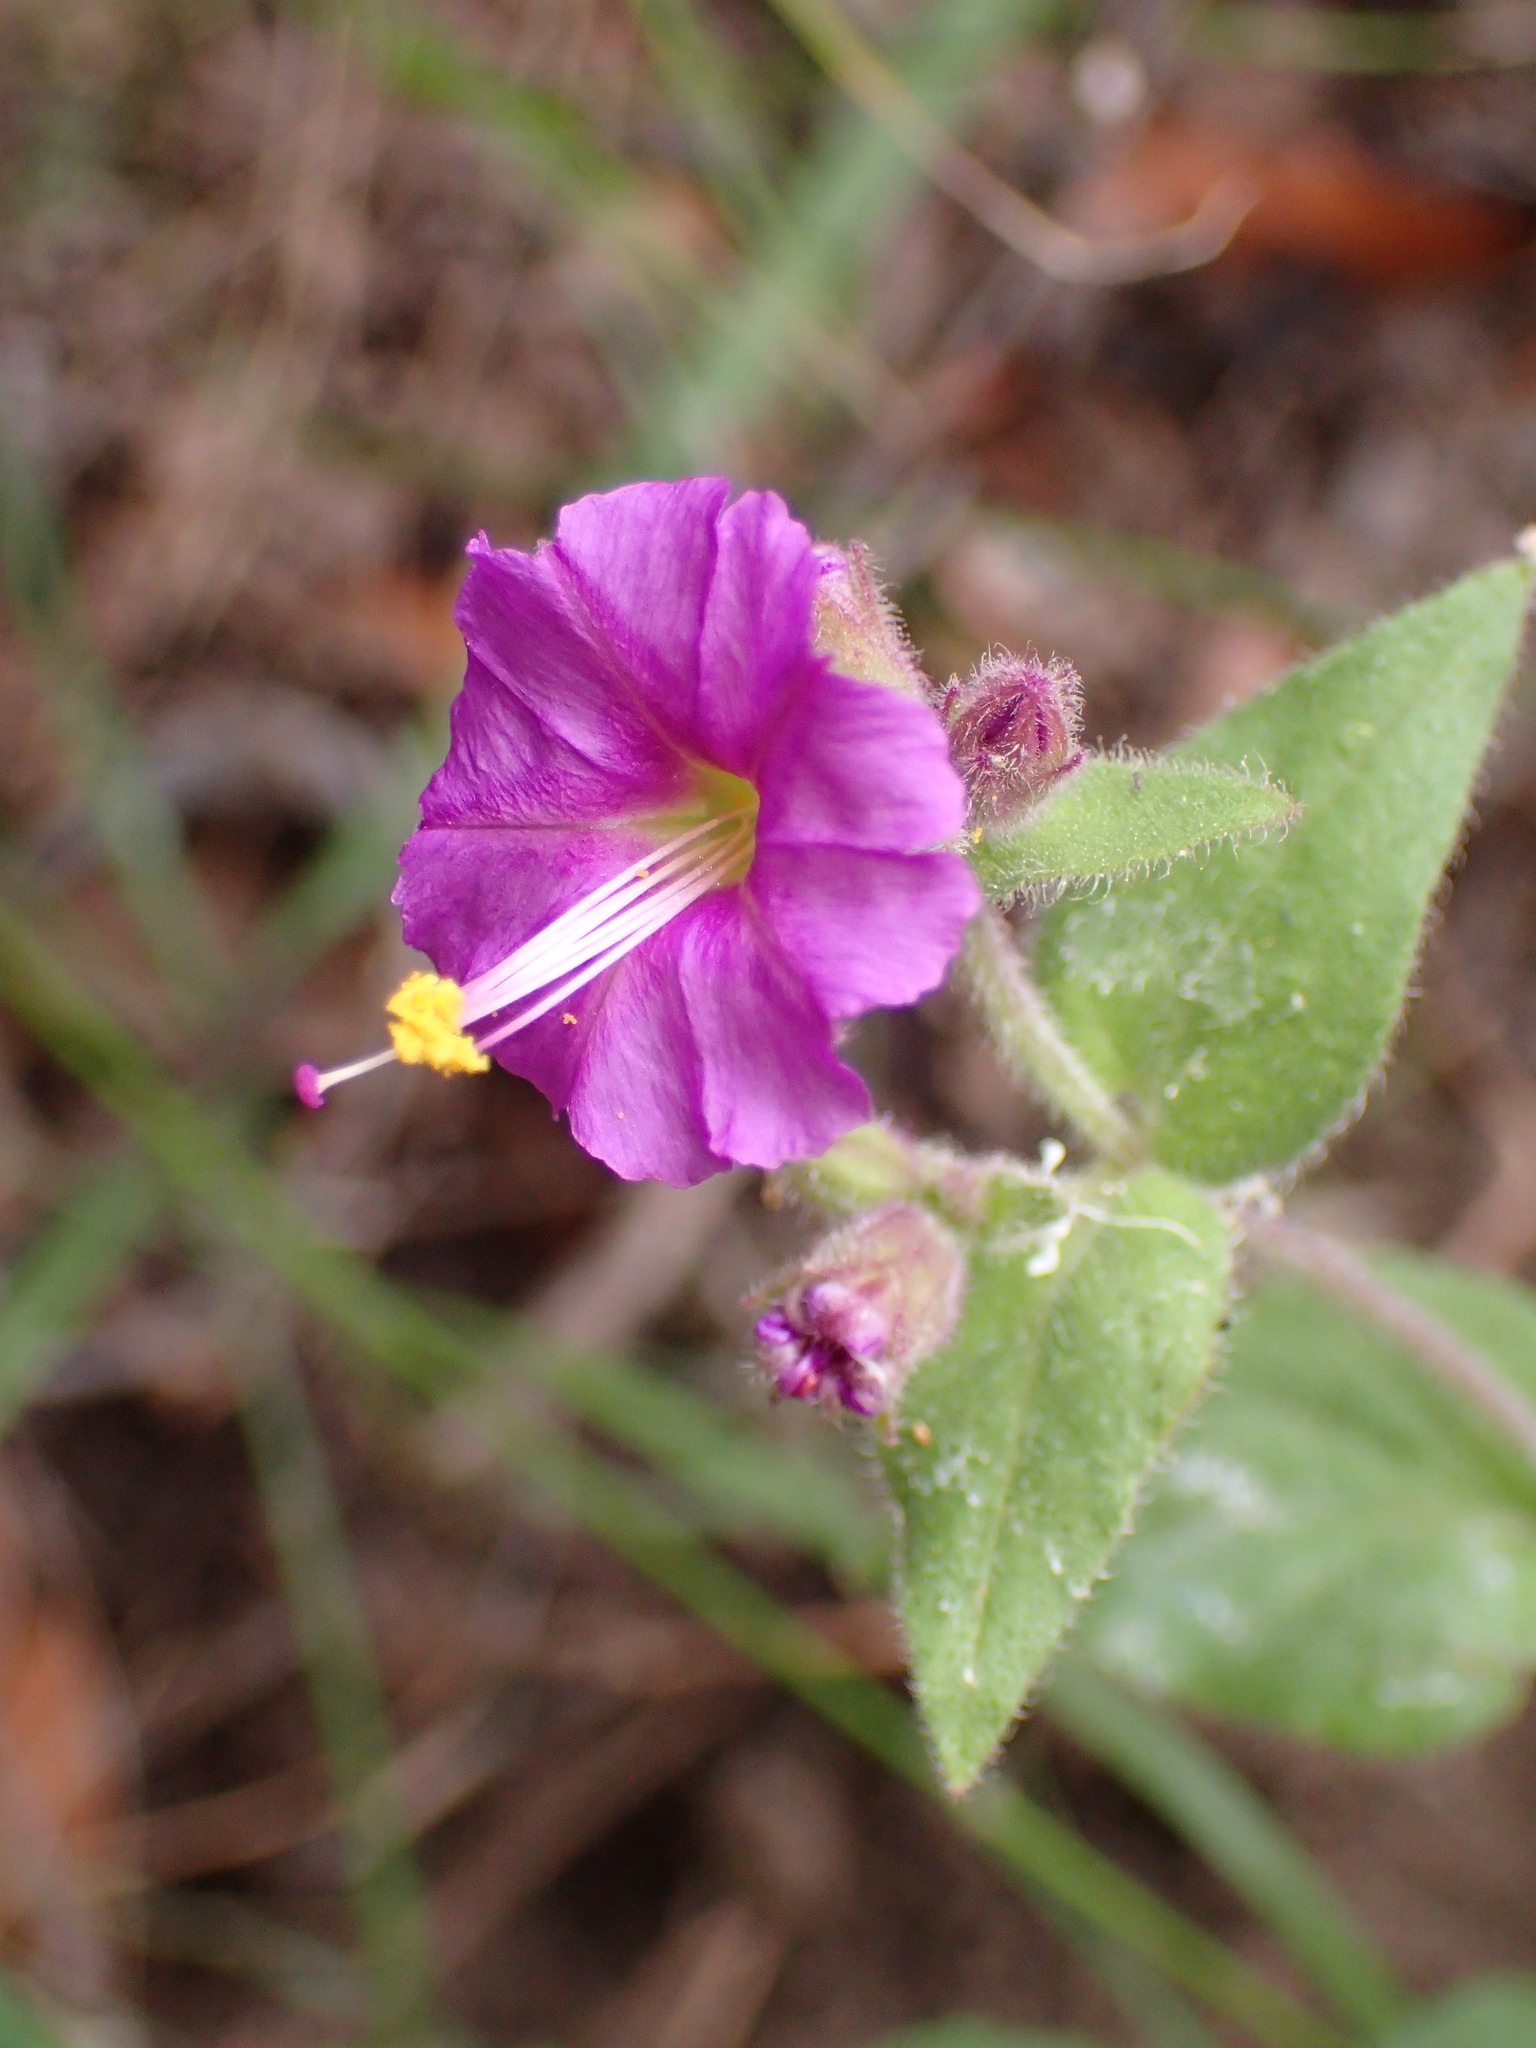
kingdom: Plantae
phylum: Tracheophyta
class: Magnoliopsida
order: Caryophyllales
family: Nyctaginaceae
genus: Mirabilis
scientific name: Mirabilis laevis
